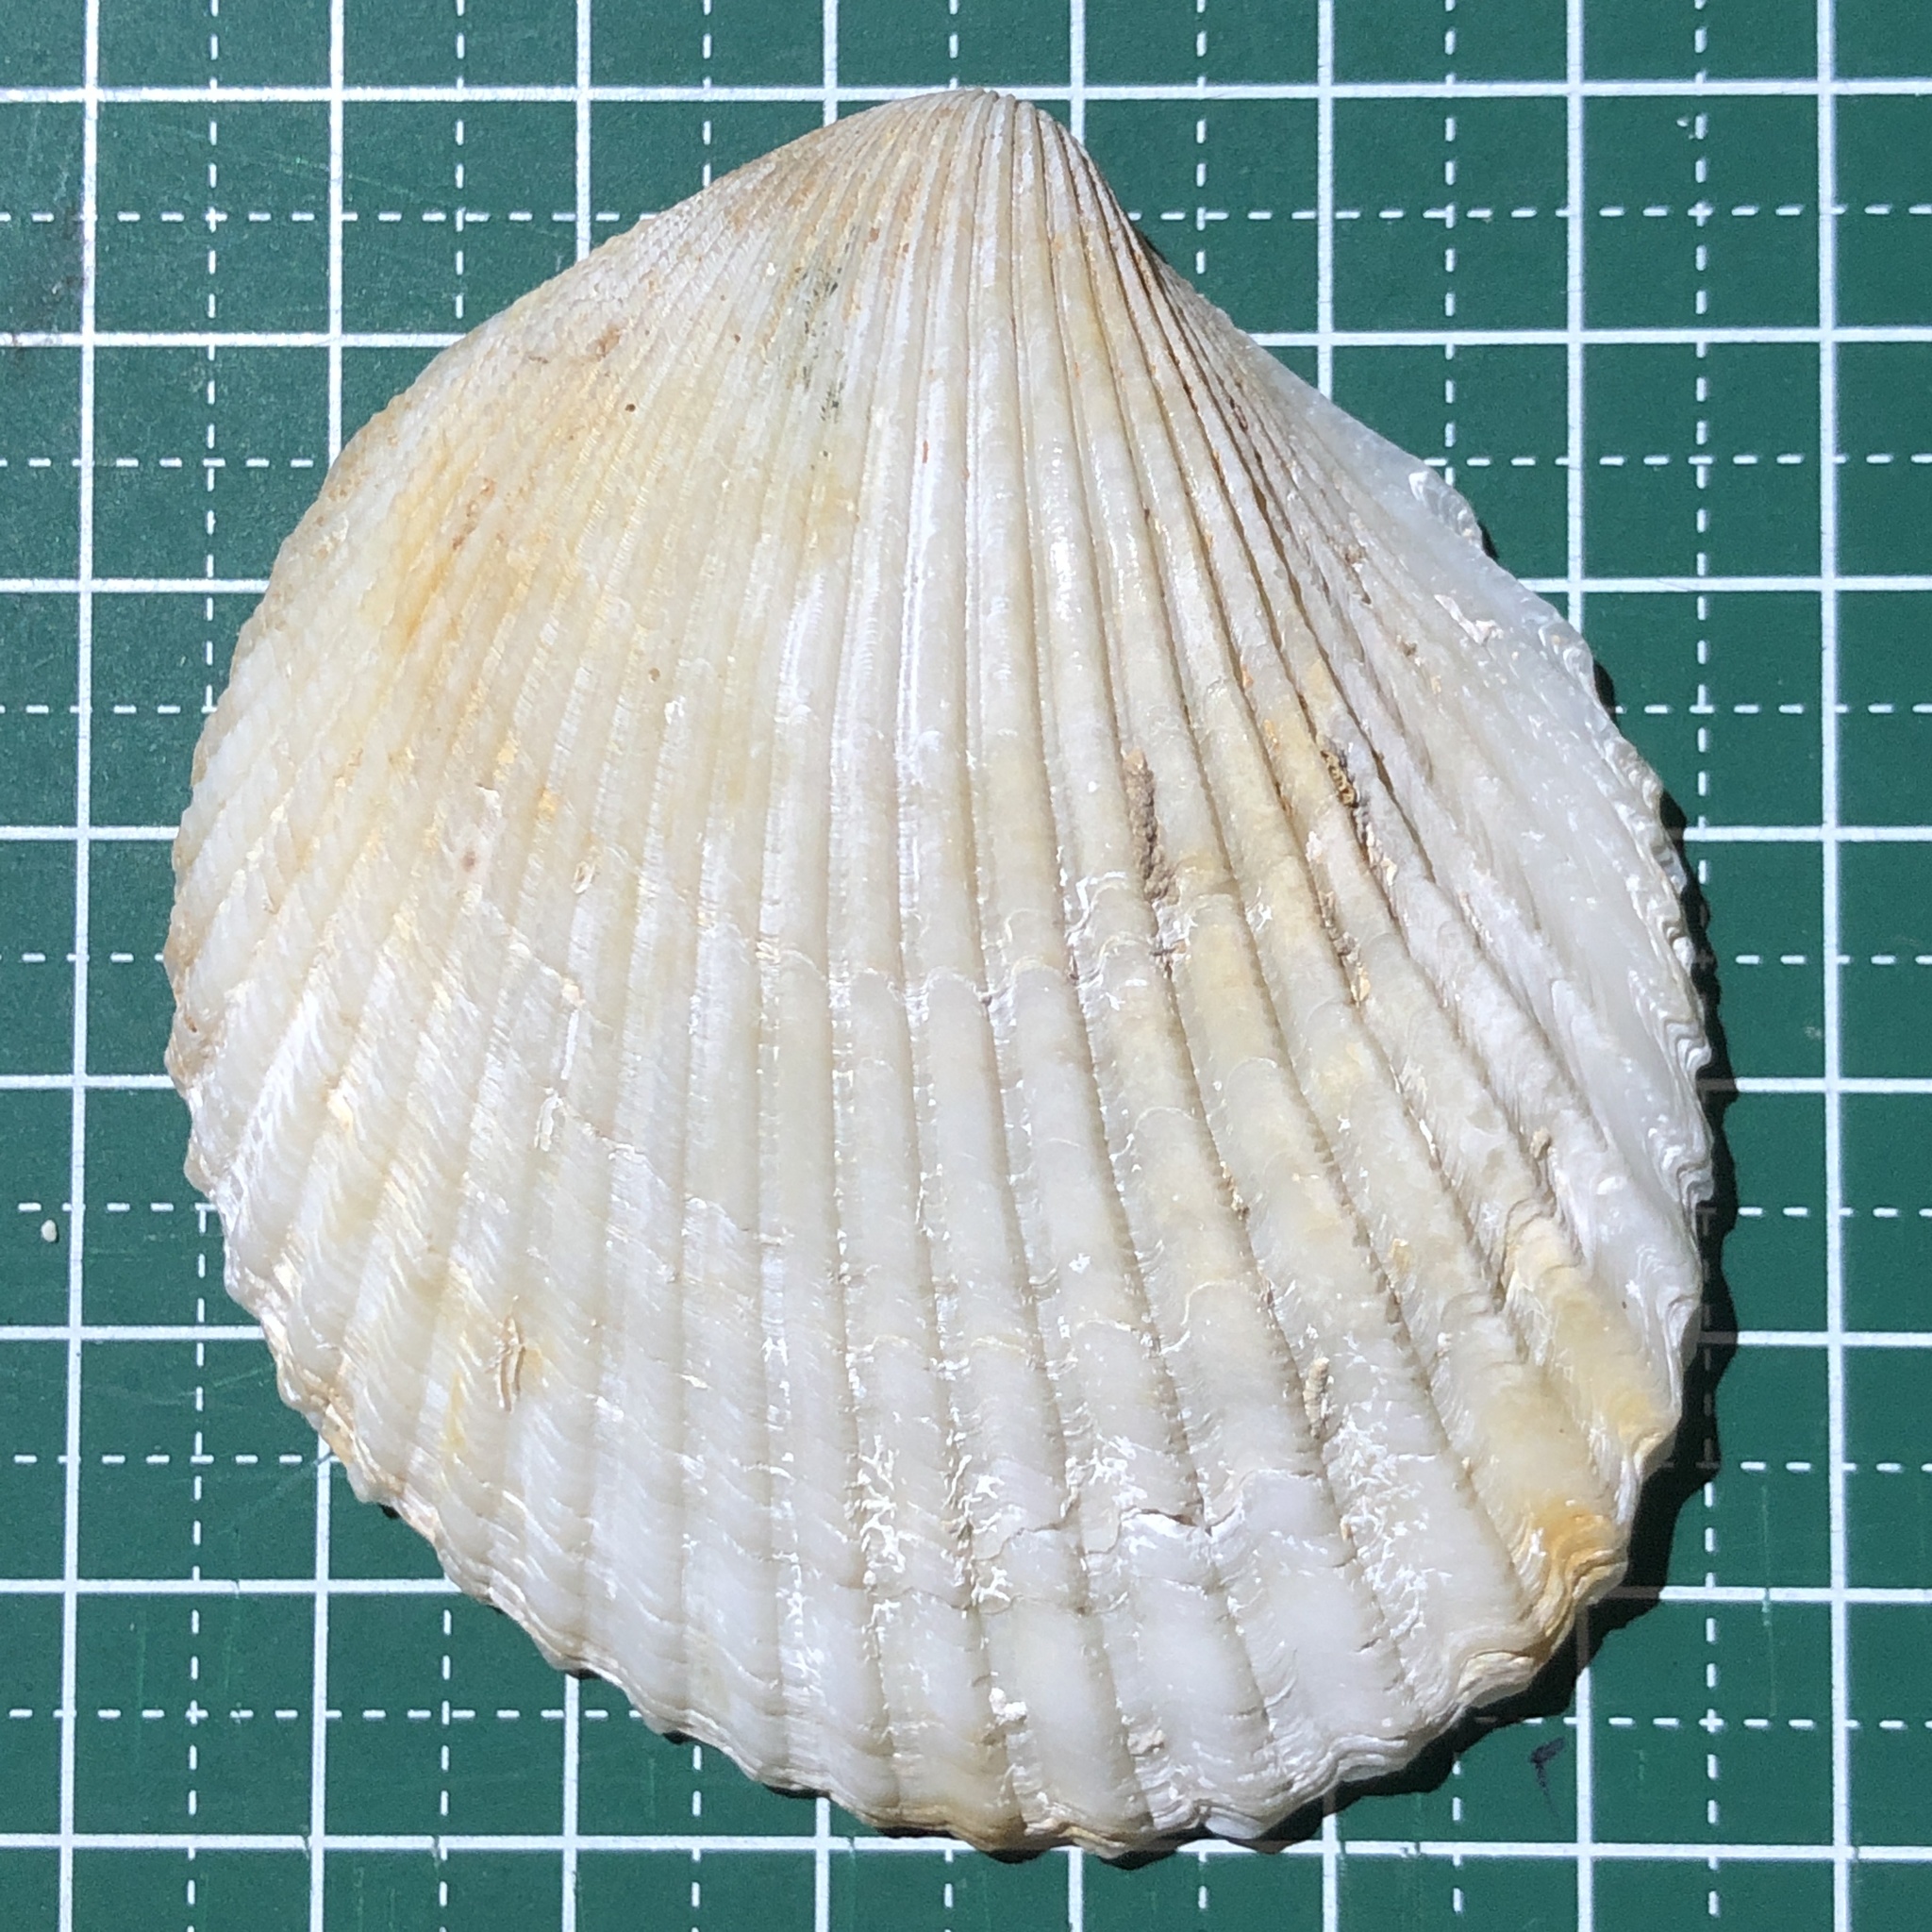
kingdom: Animalia
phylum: Mollusca
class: Bivalvia
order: Cardiida
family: Cardiidae
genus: Vasticardium
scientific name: Vasticardium pectiniforme
